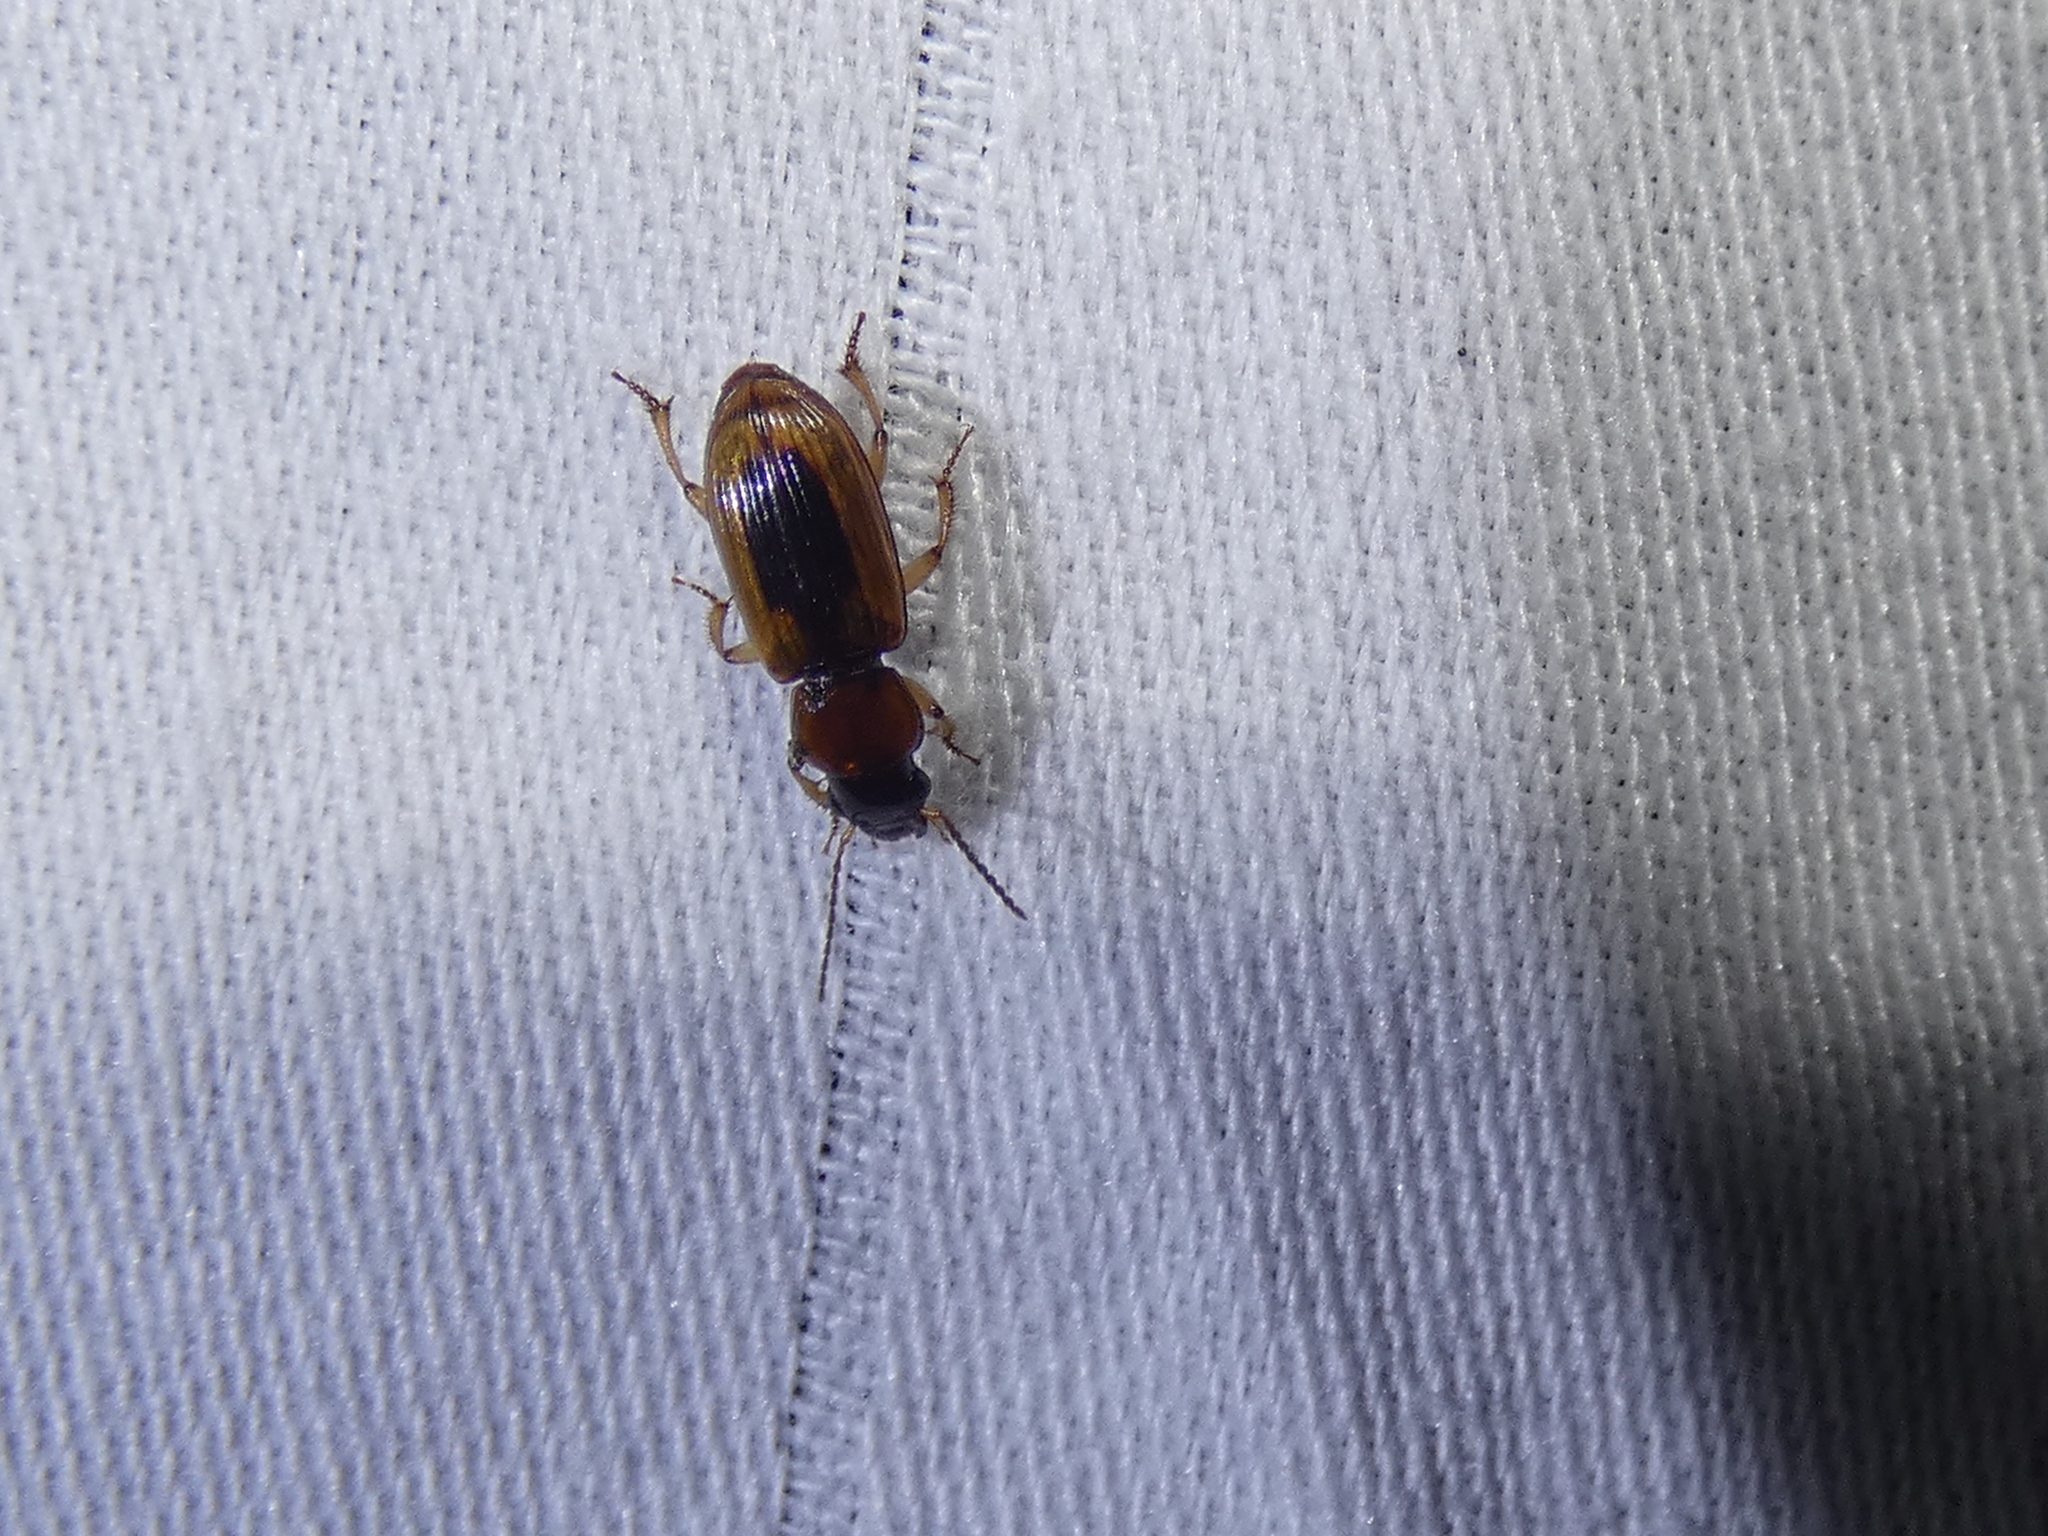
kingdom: Animalia
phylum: Arthropoda
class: Insecta
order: Coleoptera
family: Carabidae
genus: Stenolophus
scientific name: Stenolophus lecontei
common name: Leconte's seedcorn beetle
